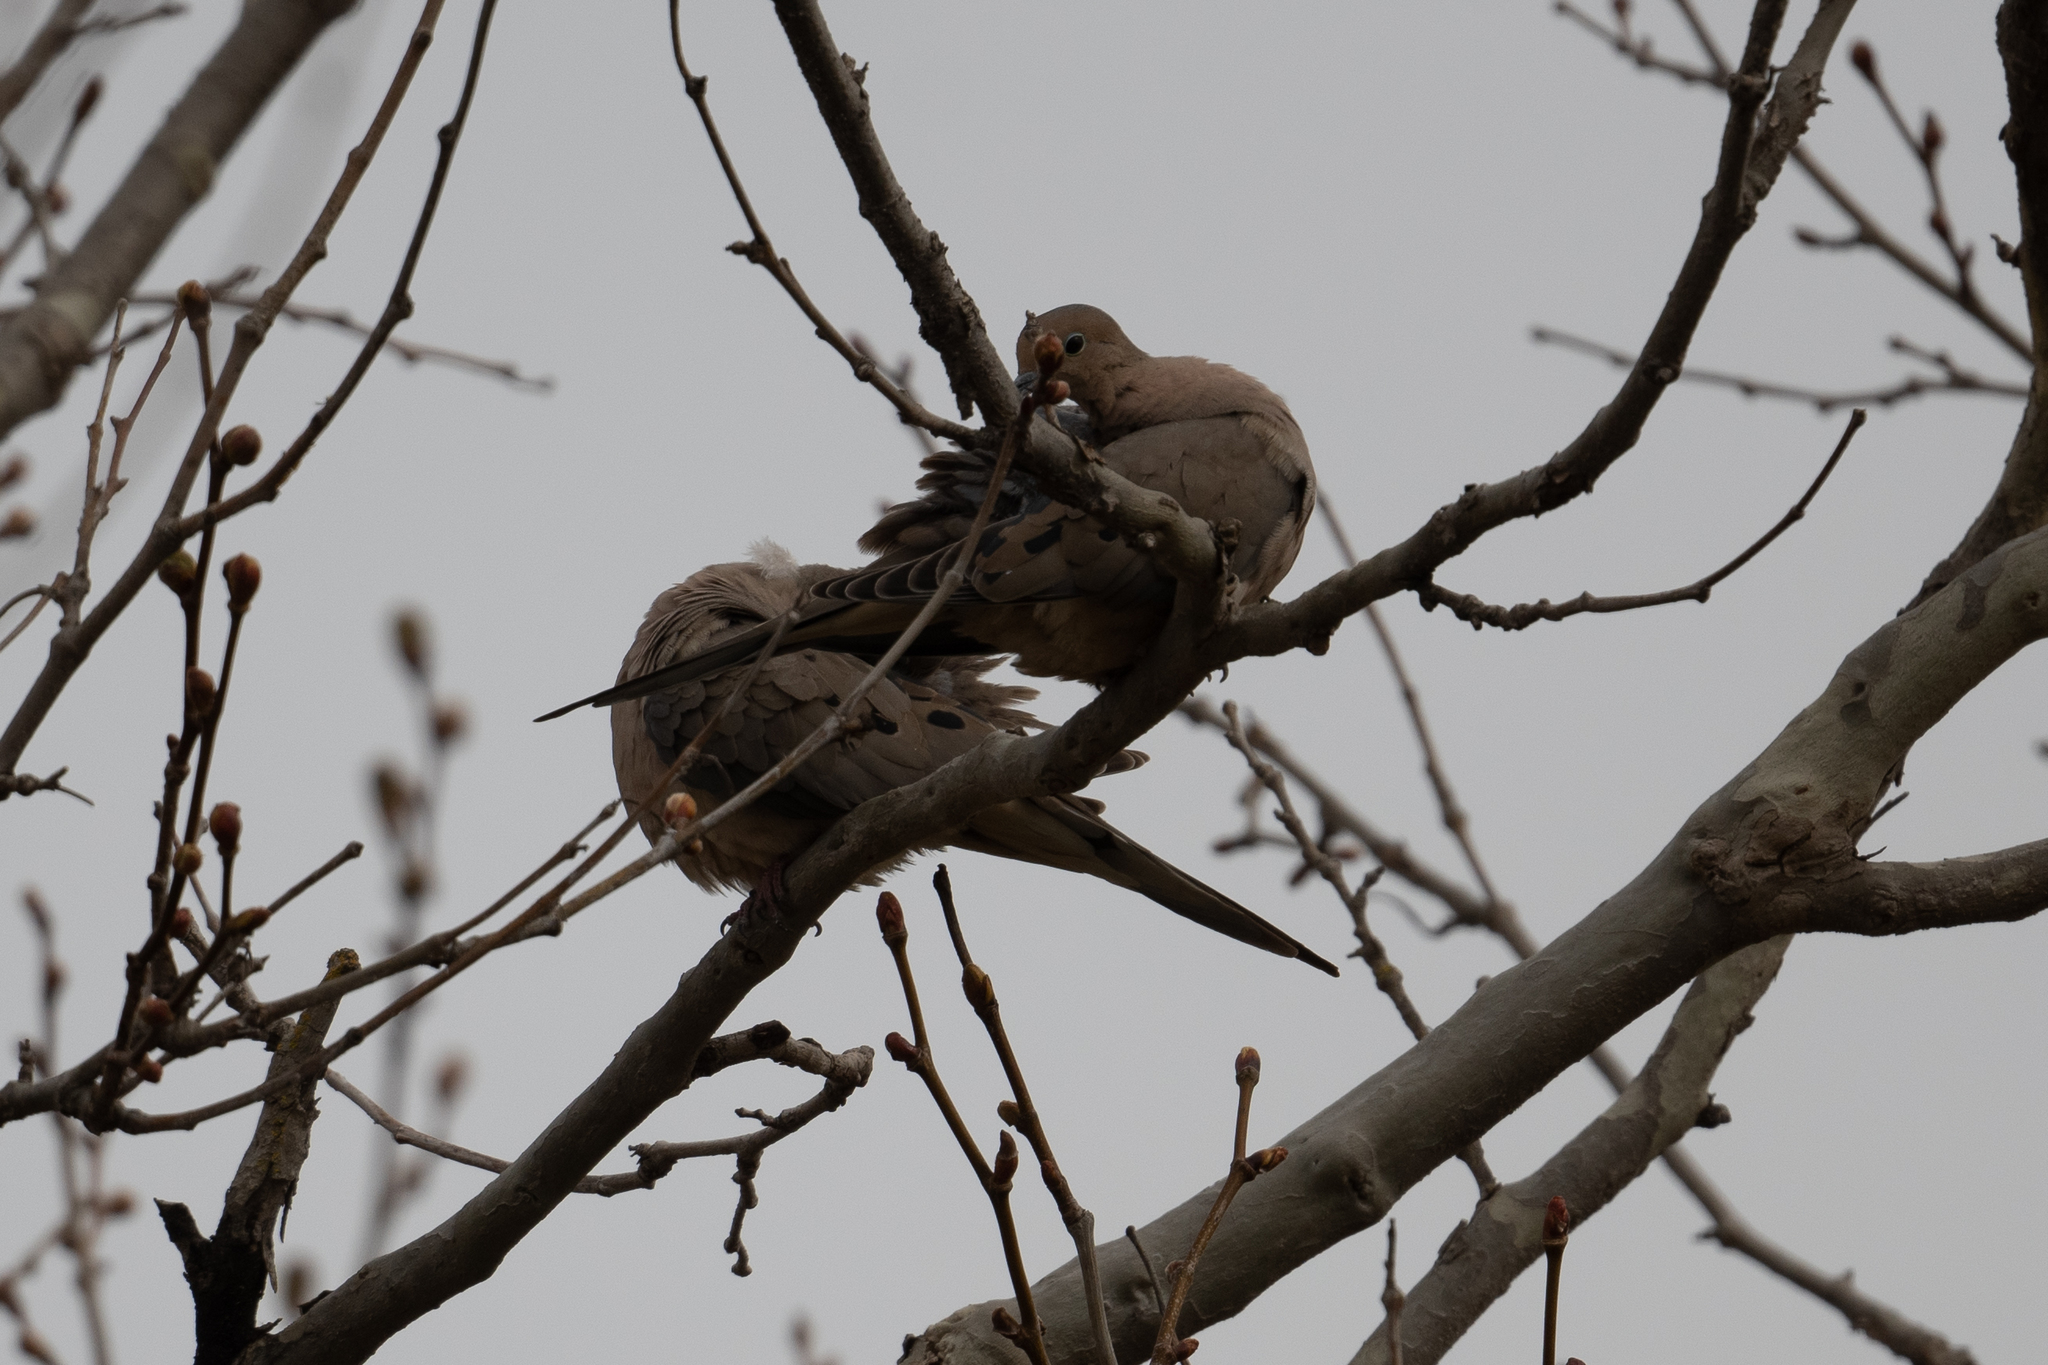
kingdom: Animalia
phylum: Chordata
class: Aves
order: Columbiformes
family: Columbidae
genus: Zenaida
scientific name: Zenaida macroura
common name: Mourning dove
